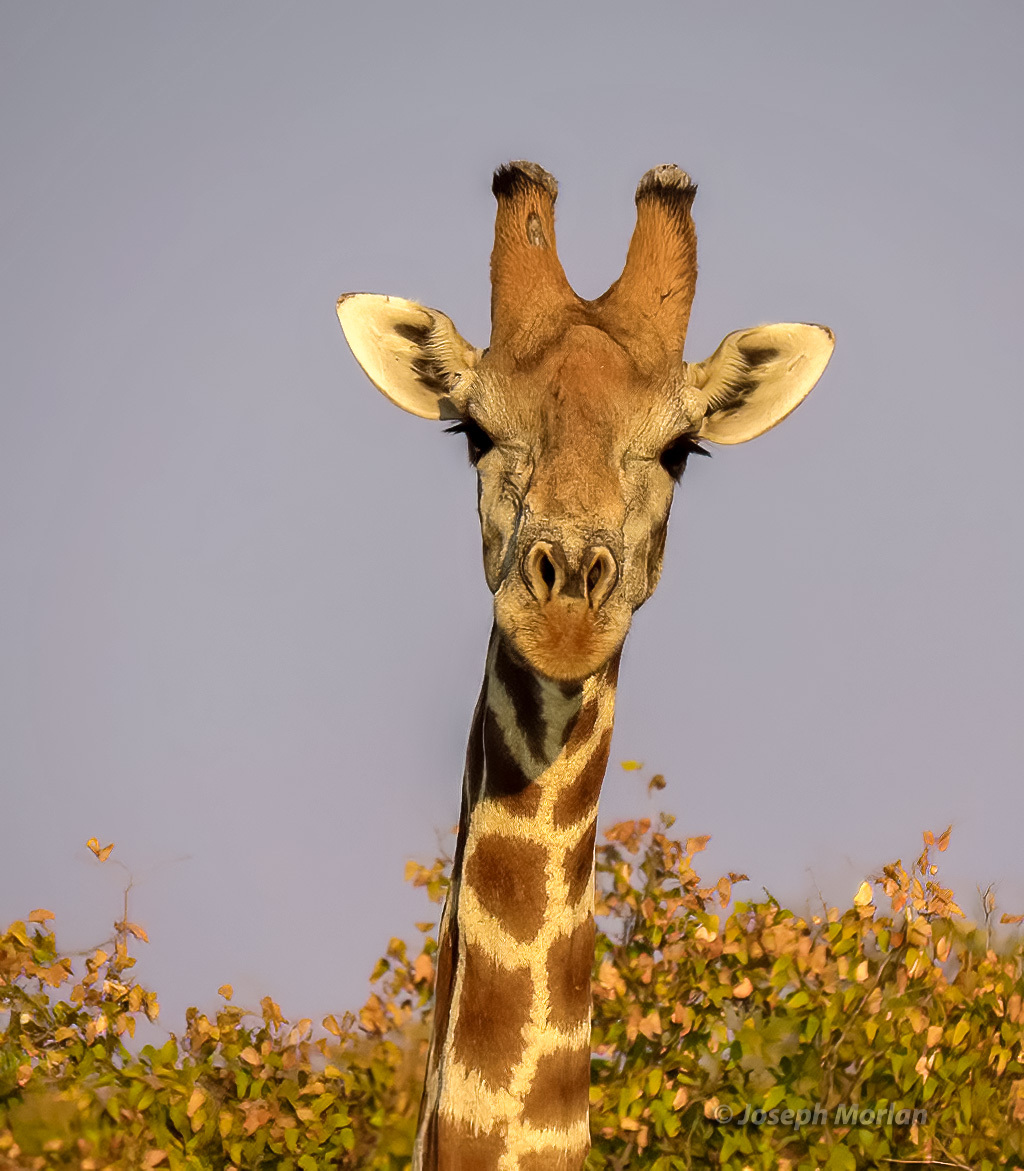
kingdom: Animalia
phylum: Chordata
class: Mammalia
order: Artiodactyla
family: Giraffidae
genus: Giraffa
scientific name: Giraffa giraffa
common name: Southern giraffe
